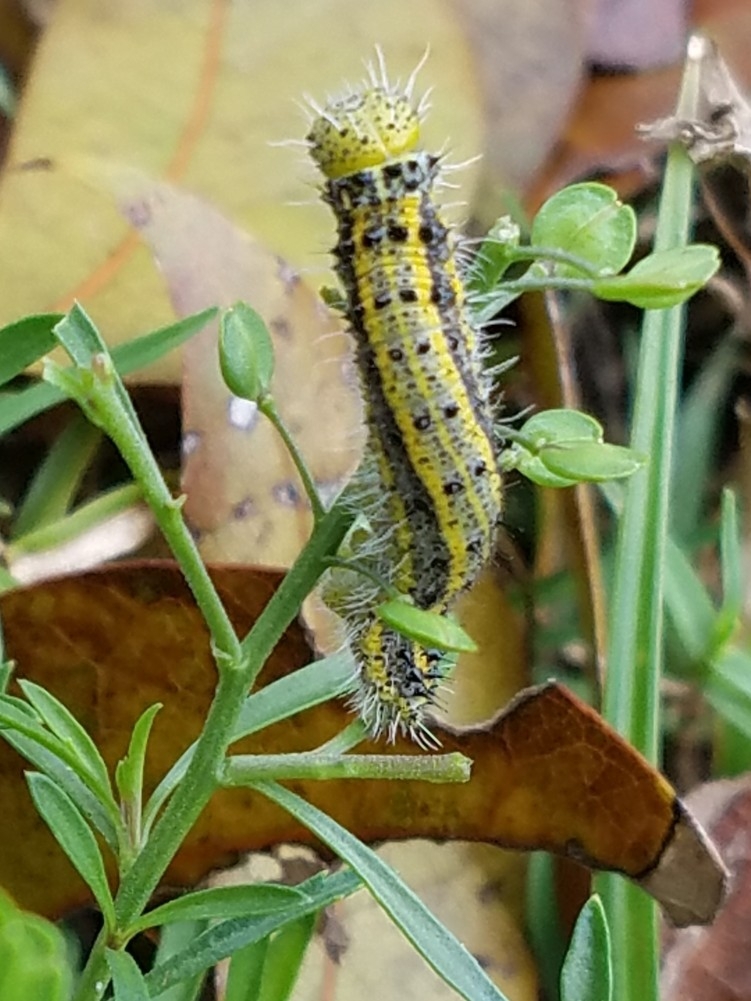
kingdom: Animalia
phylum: Arthropoda
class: Insecta
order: Lepidoptera
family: Pieridae
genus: Ascia
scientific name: Ascia monuste
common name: Great southern white
